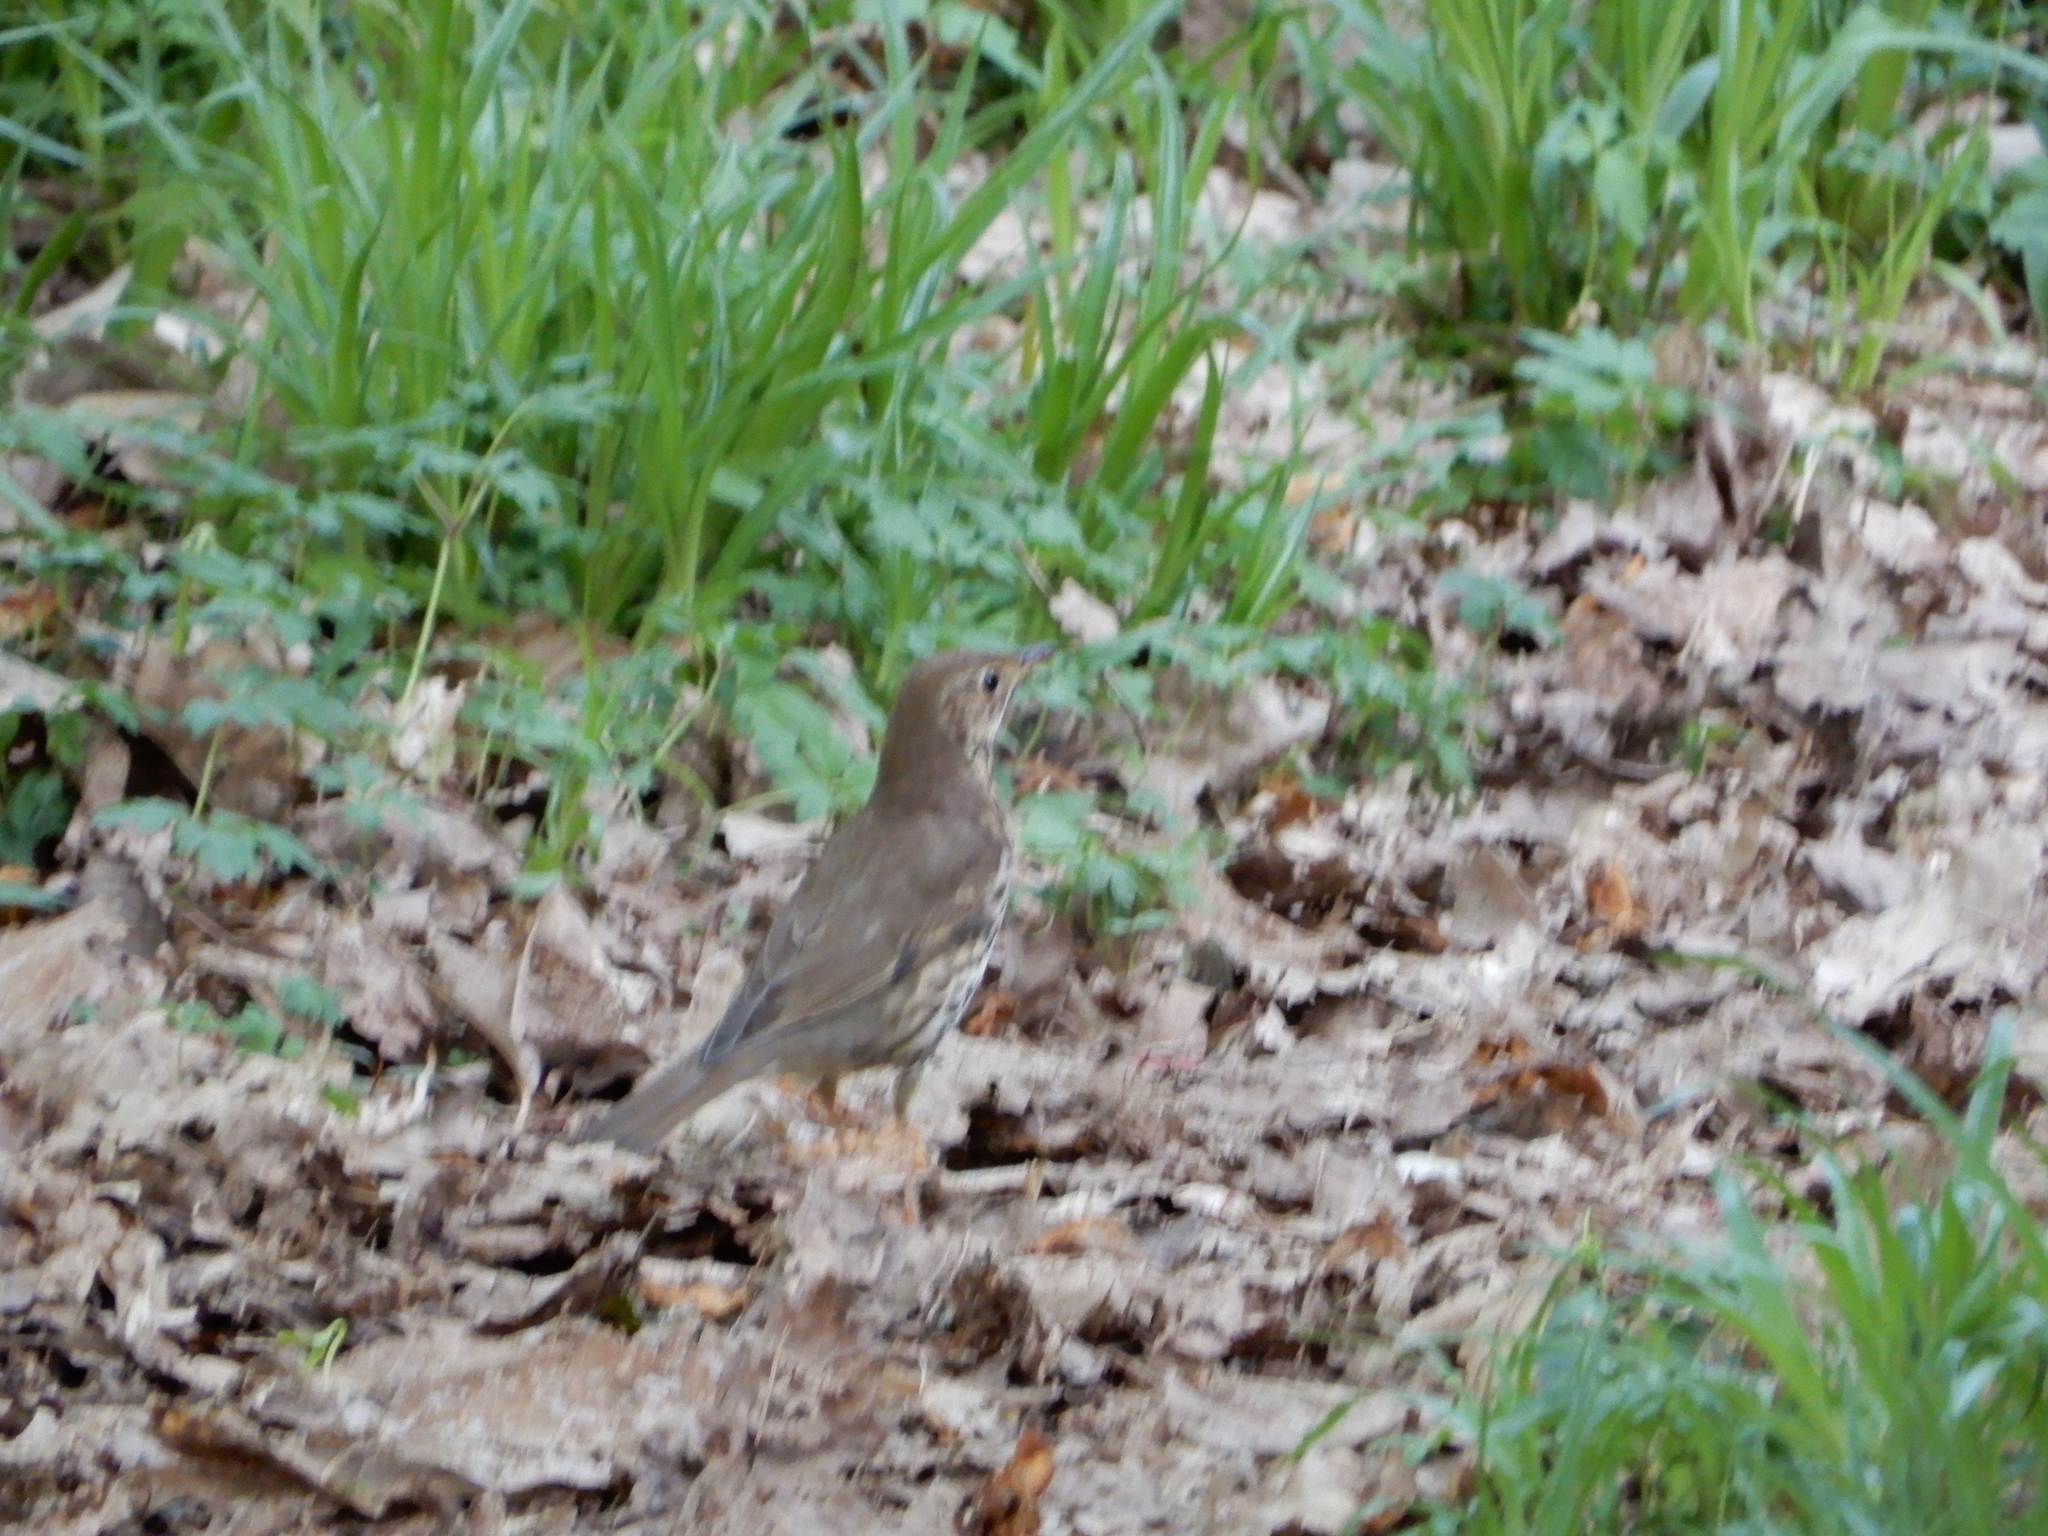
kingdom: Animalia
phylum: Chordata
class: Aves
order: Passeriformes
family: Turdidae
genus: Turdus
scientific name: Turdus philomelos
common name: Song thrush
